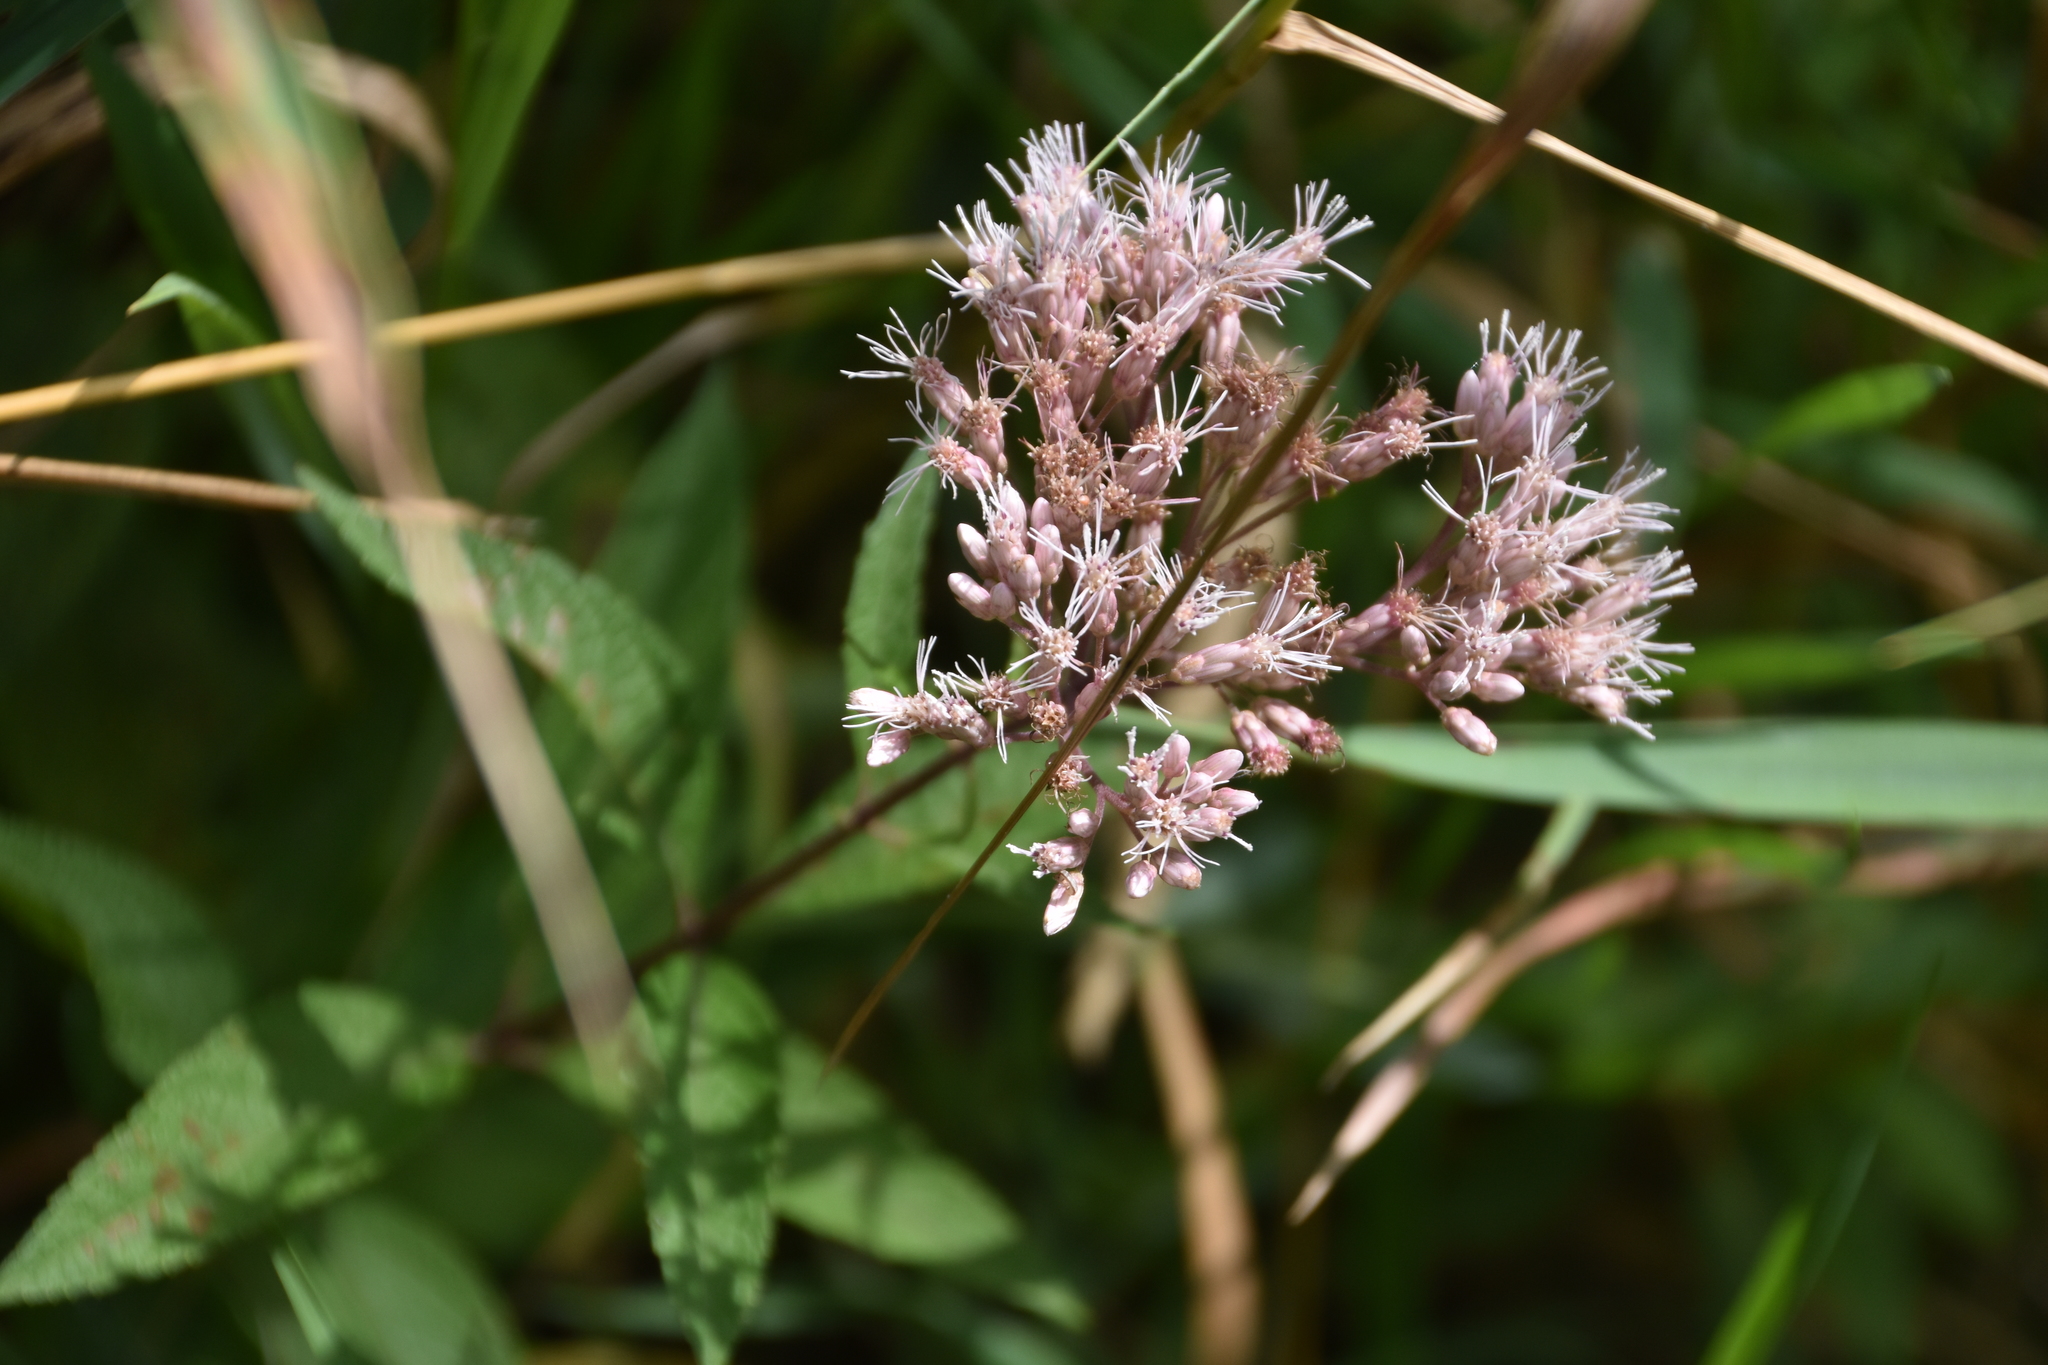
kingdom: Plantae
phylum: Tracheophyta
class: Magnoliopsida
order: Asterales
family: Asteraceae
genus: Eutrochium
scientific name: Eutrochium maculatum
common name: Spotted joe pye weed
